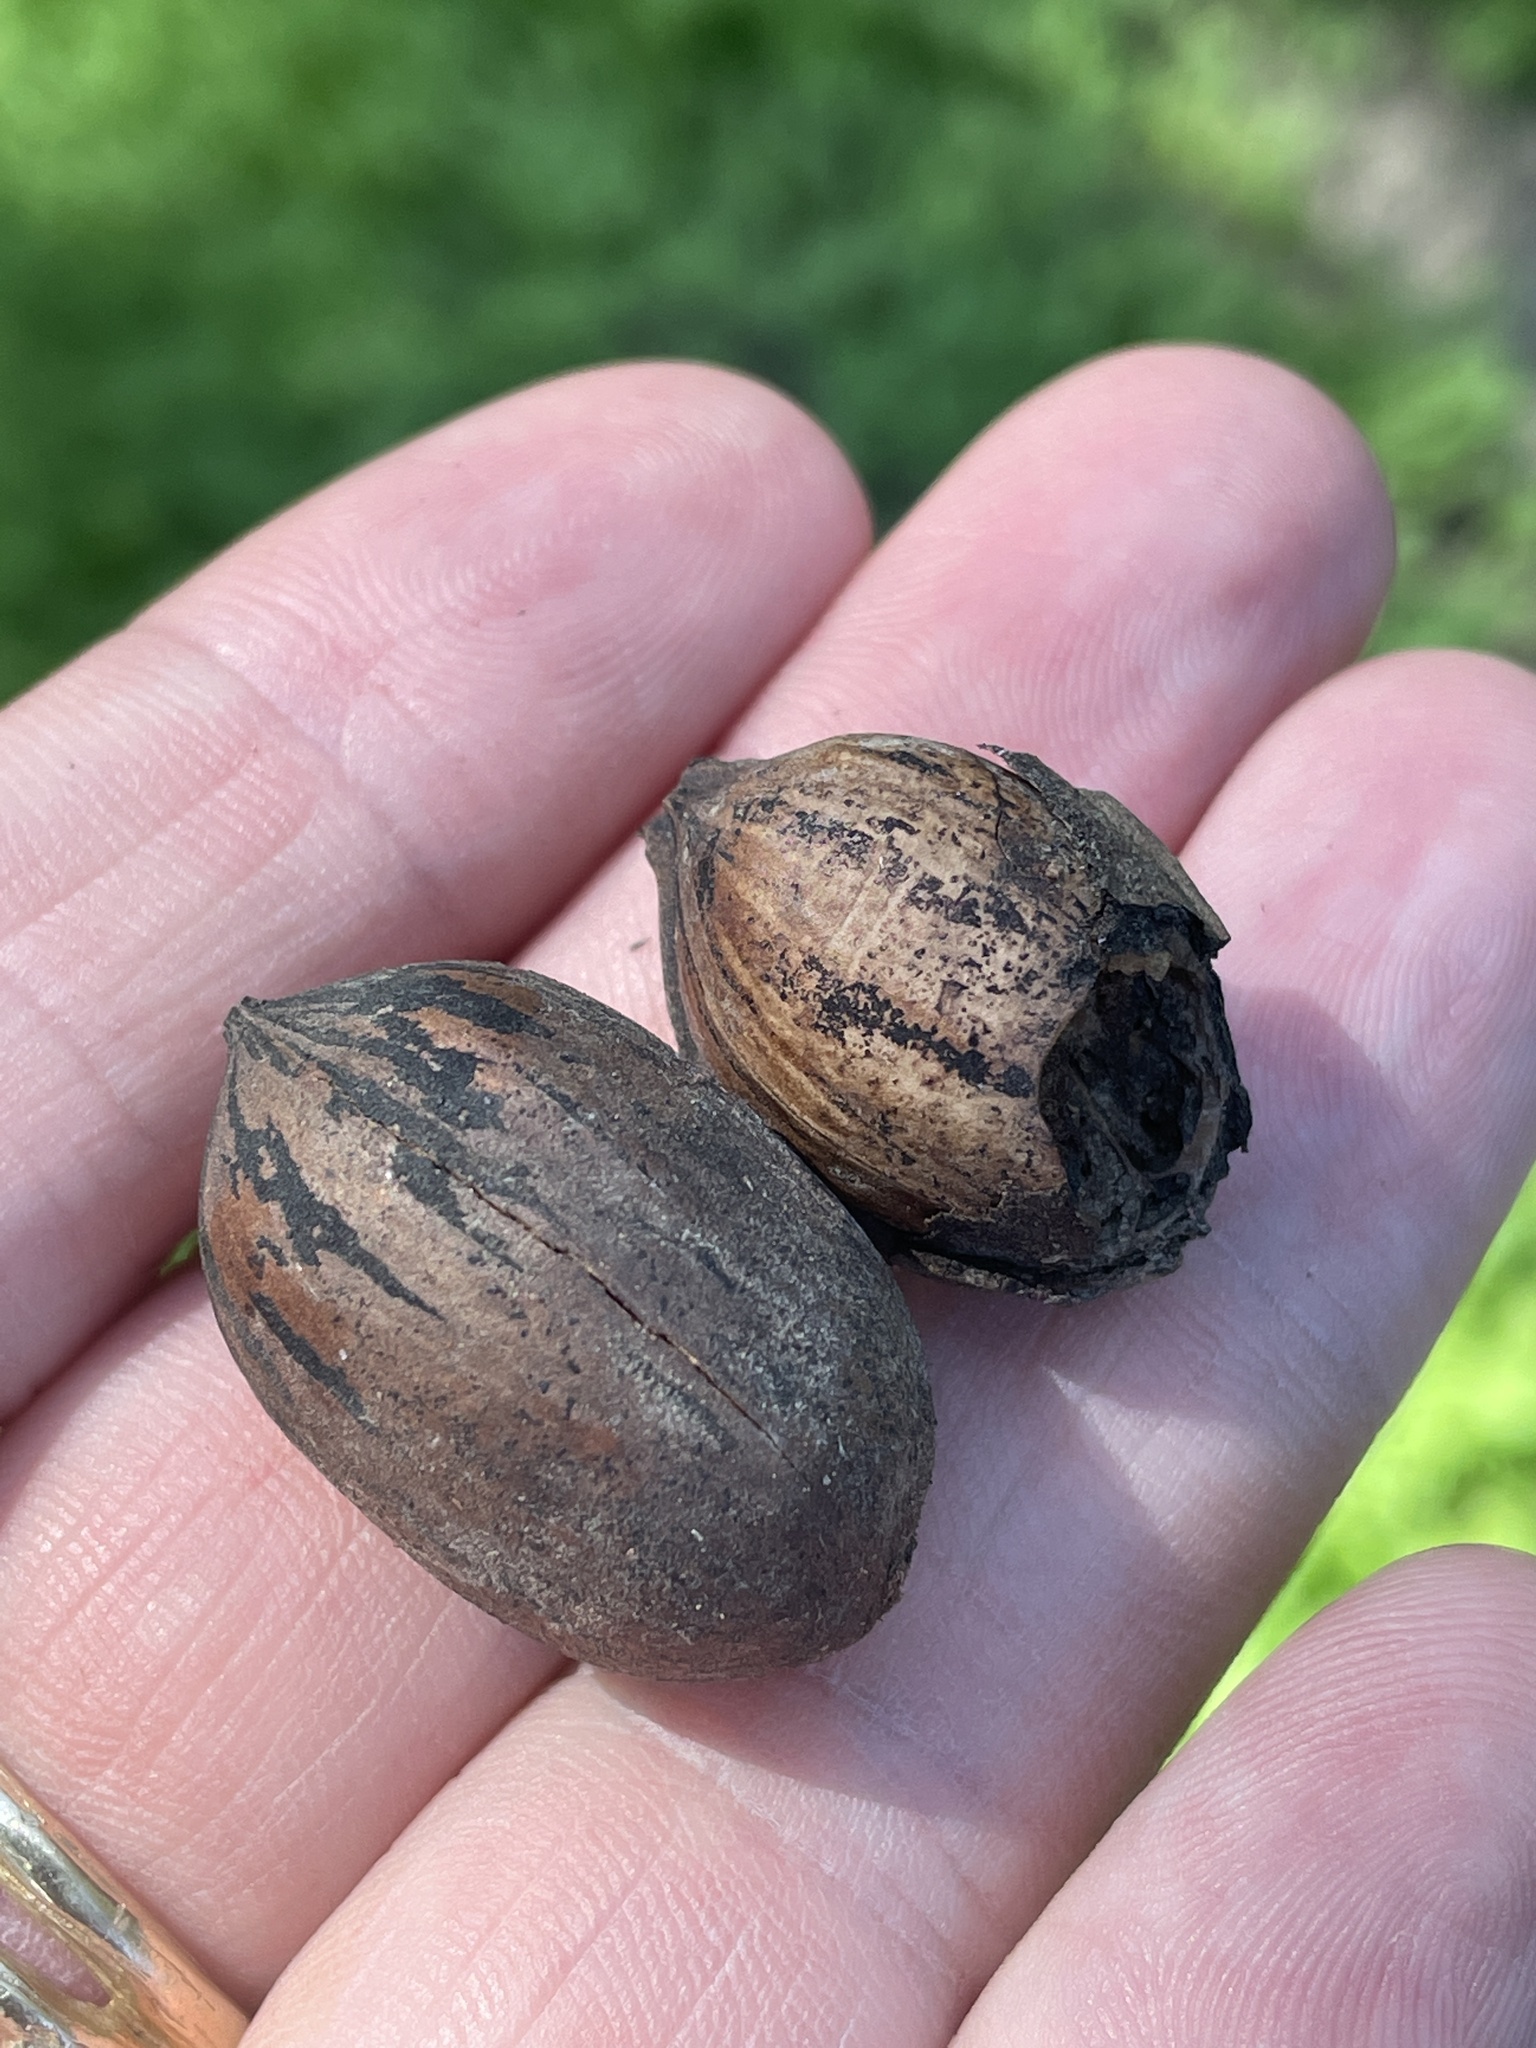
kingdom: Plantae
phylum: Tracheophyta
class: Magnoliopsida
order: Fagales
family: Juglandaceae
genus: Carya
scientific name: Carya illinoinensis
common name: Pecan
